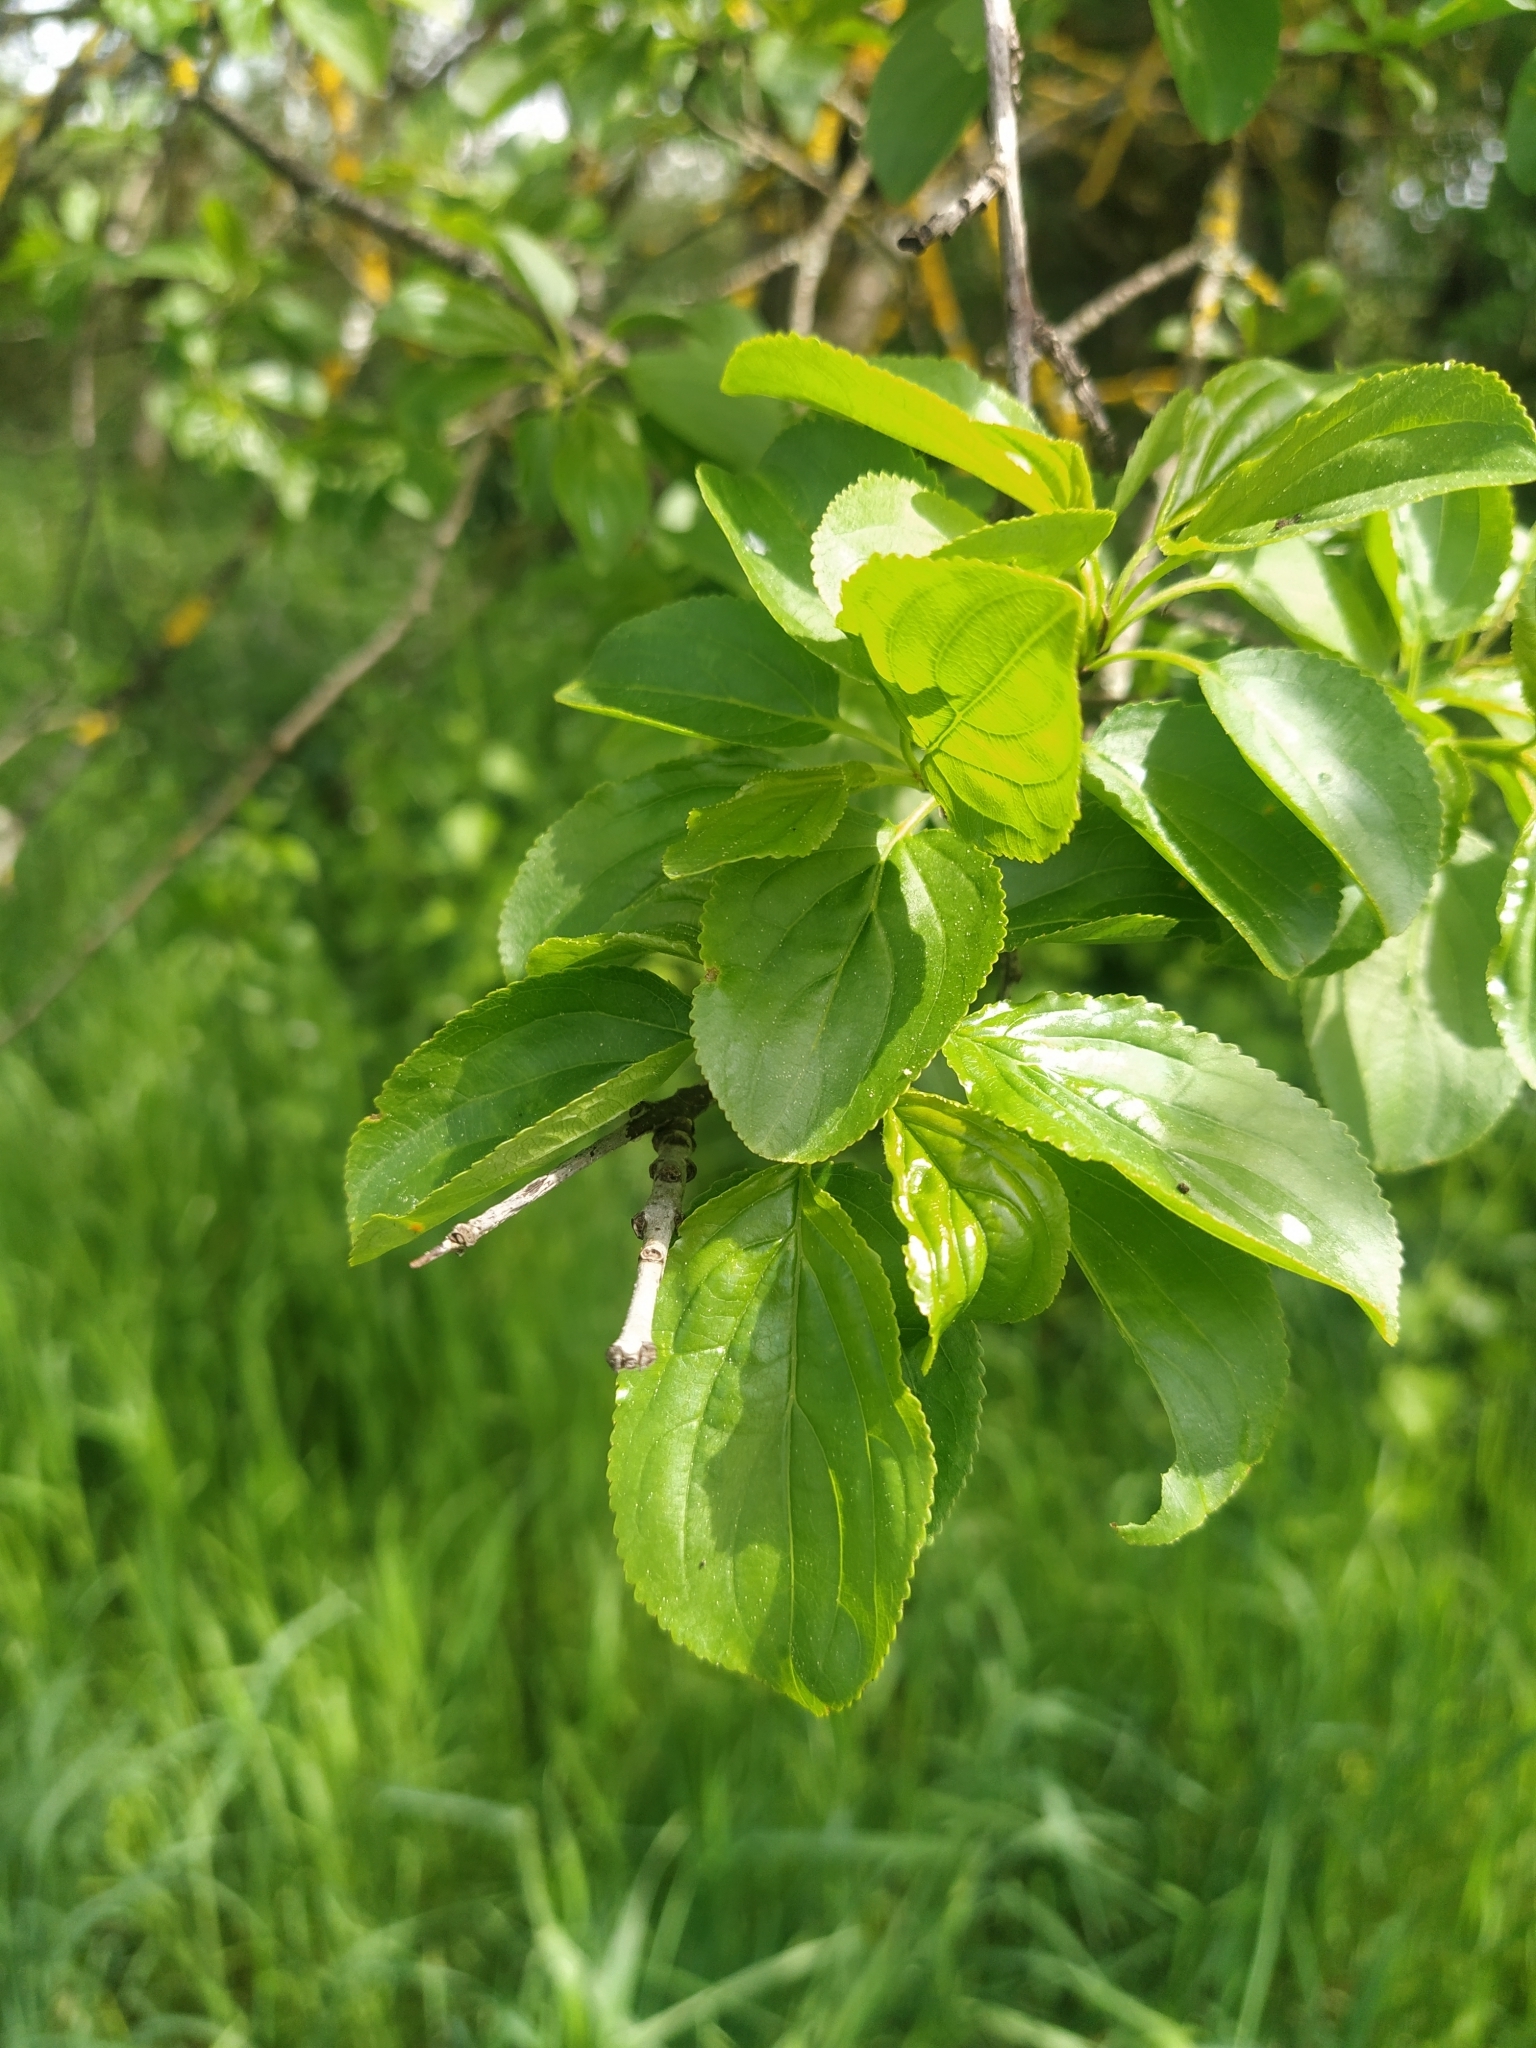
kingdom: Plantae
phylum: Tracheophyta
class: Magnoliopsida
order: Rosales
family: Rhamnaceae
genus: Rhamnus
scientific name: Rhamnus cathartica
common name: Common buckthorn
